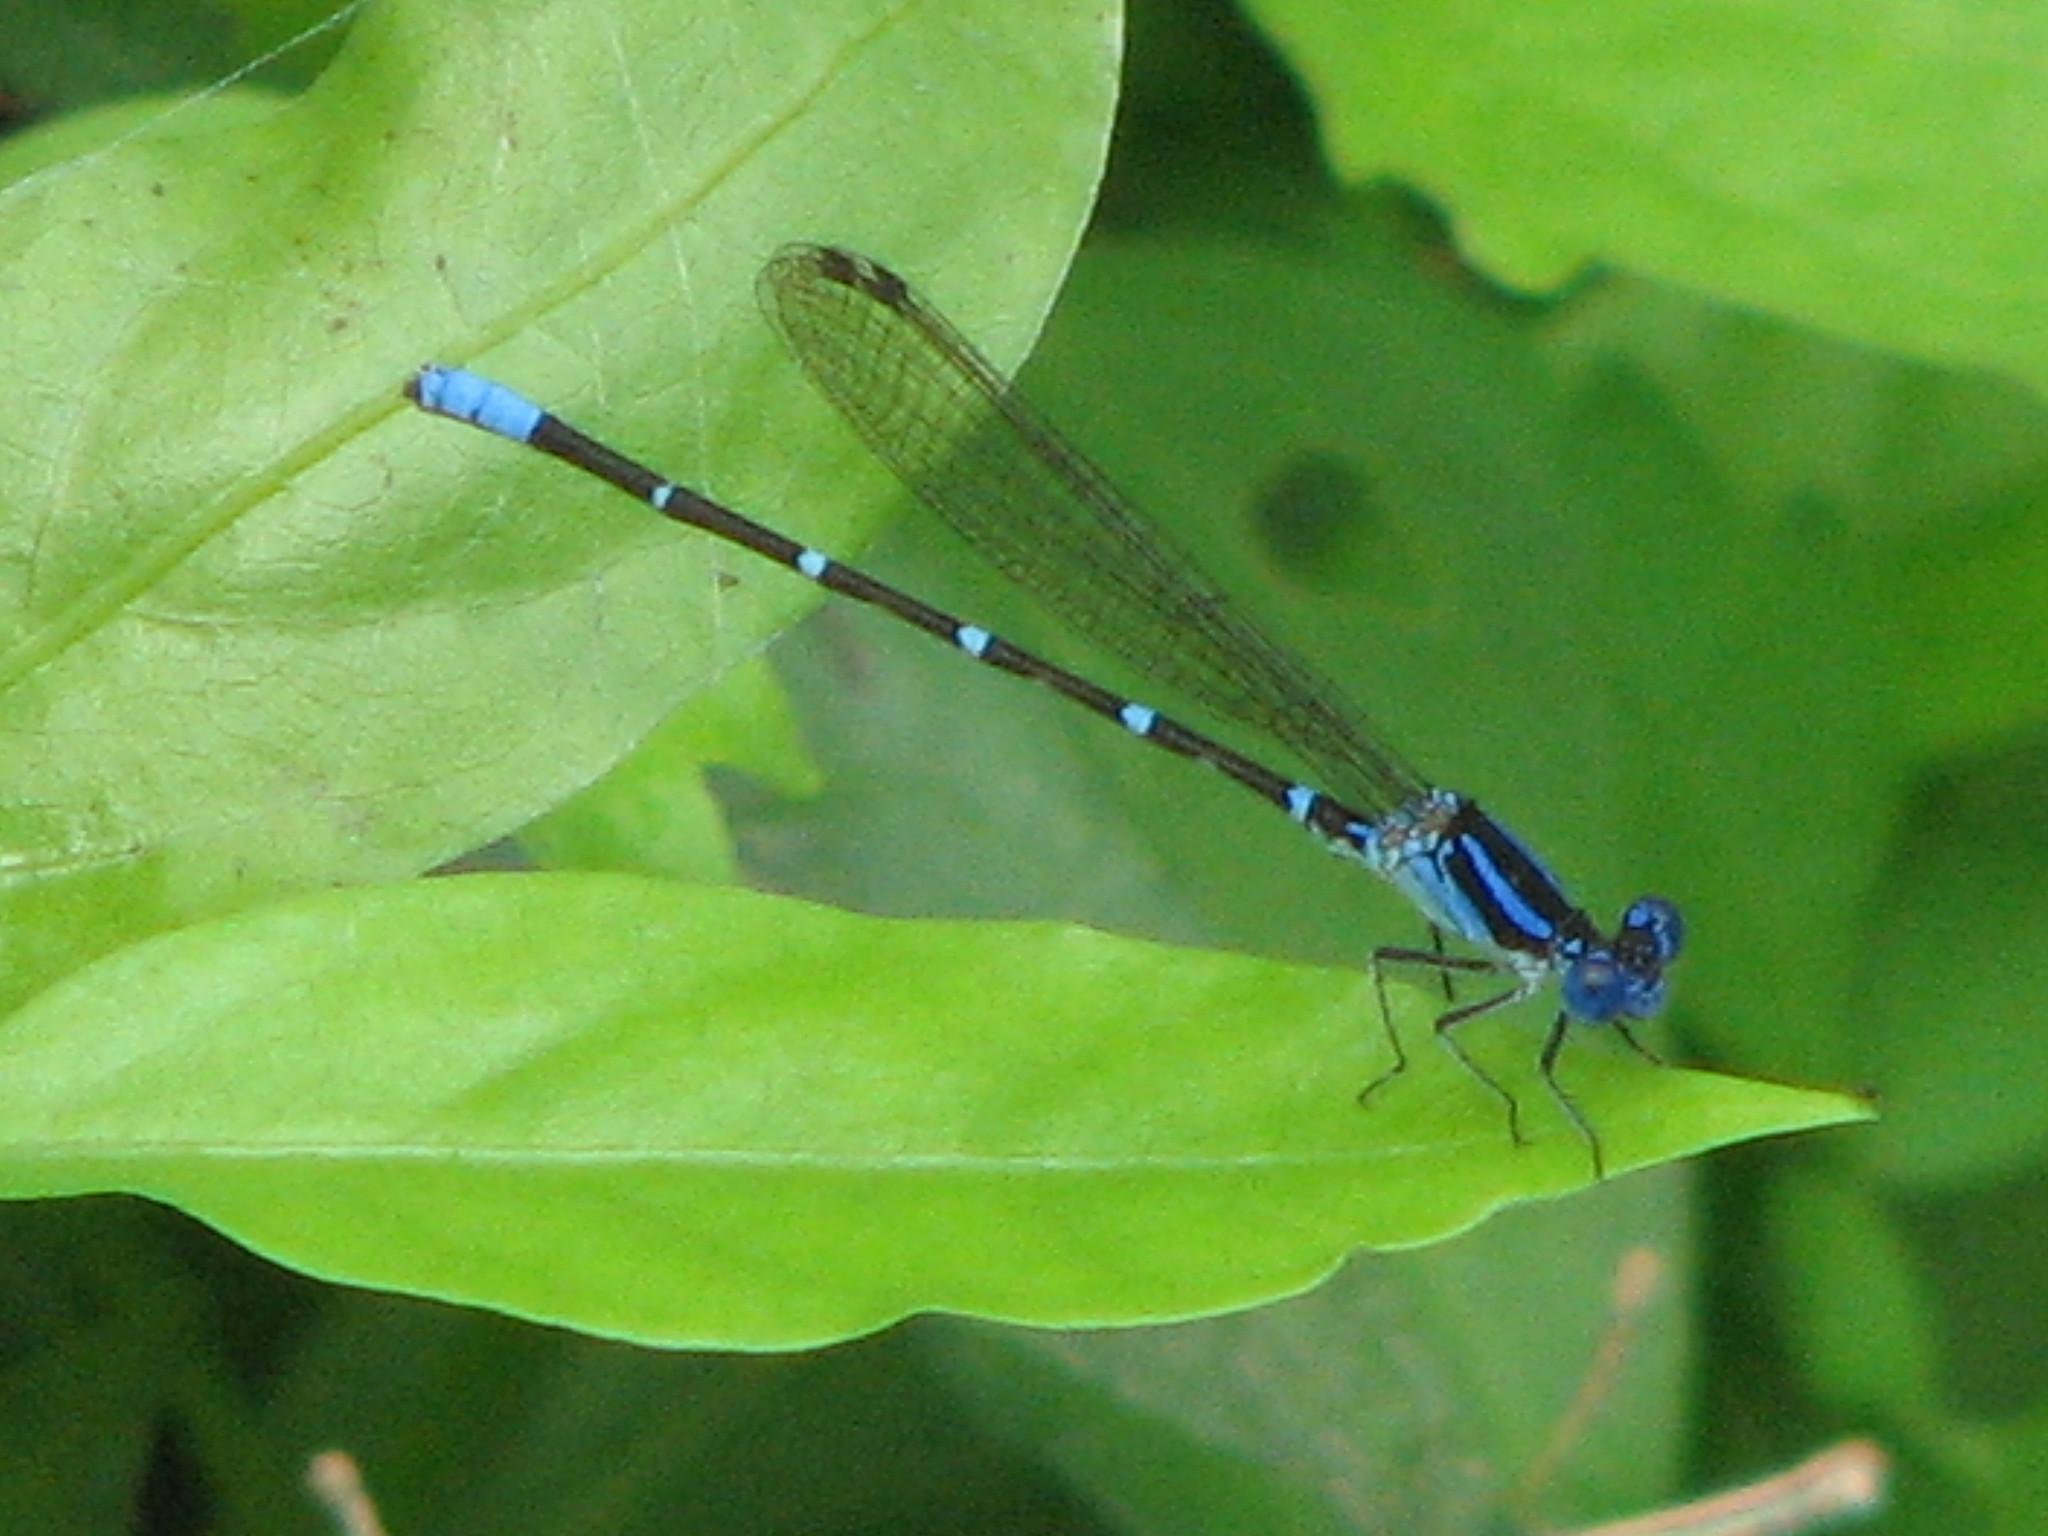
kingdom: Animalia
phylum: Arthropoda
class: Insecta
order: Odonata
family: Coenagrionidae
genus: Argia
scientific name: Argia sedula
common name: Blue-ringed dancer
